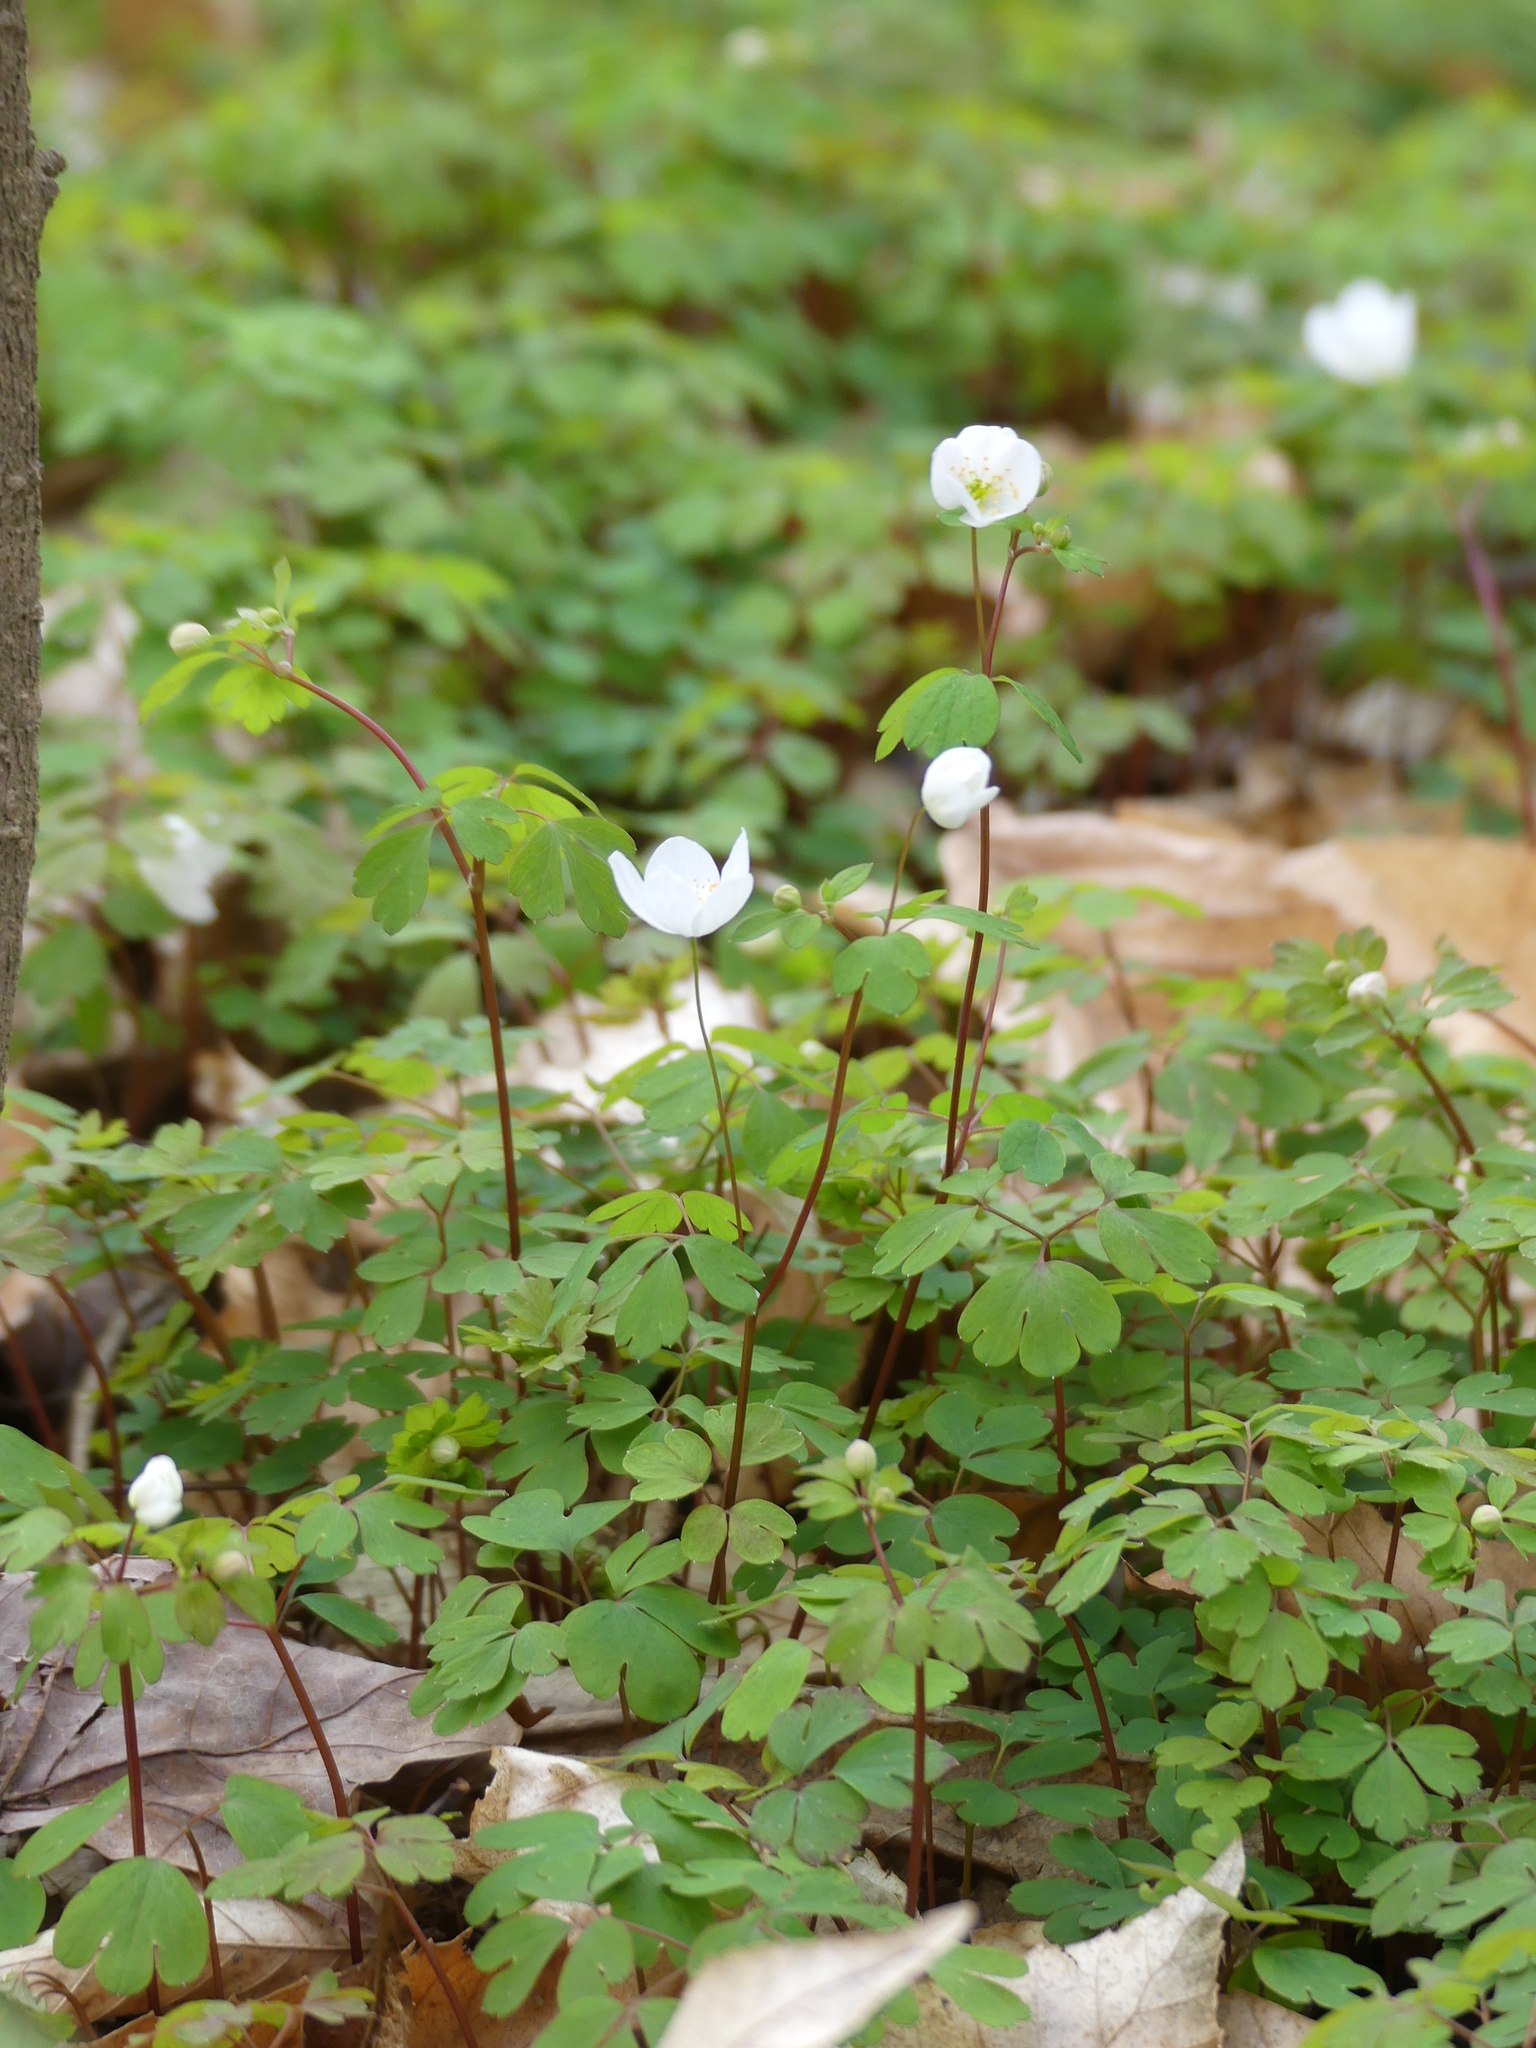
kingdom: Plantae
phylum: Tracheophyta
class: Magnoliopsida
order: Ranunculales
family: Ranunculaceae
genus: Enemion
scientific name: Enemion biternatum
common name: Eastern false rue-anemone
